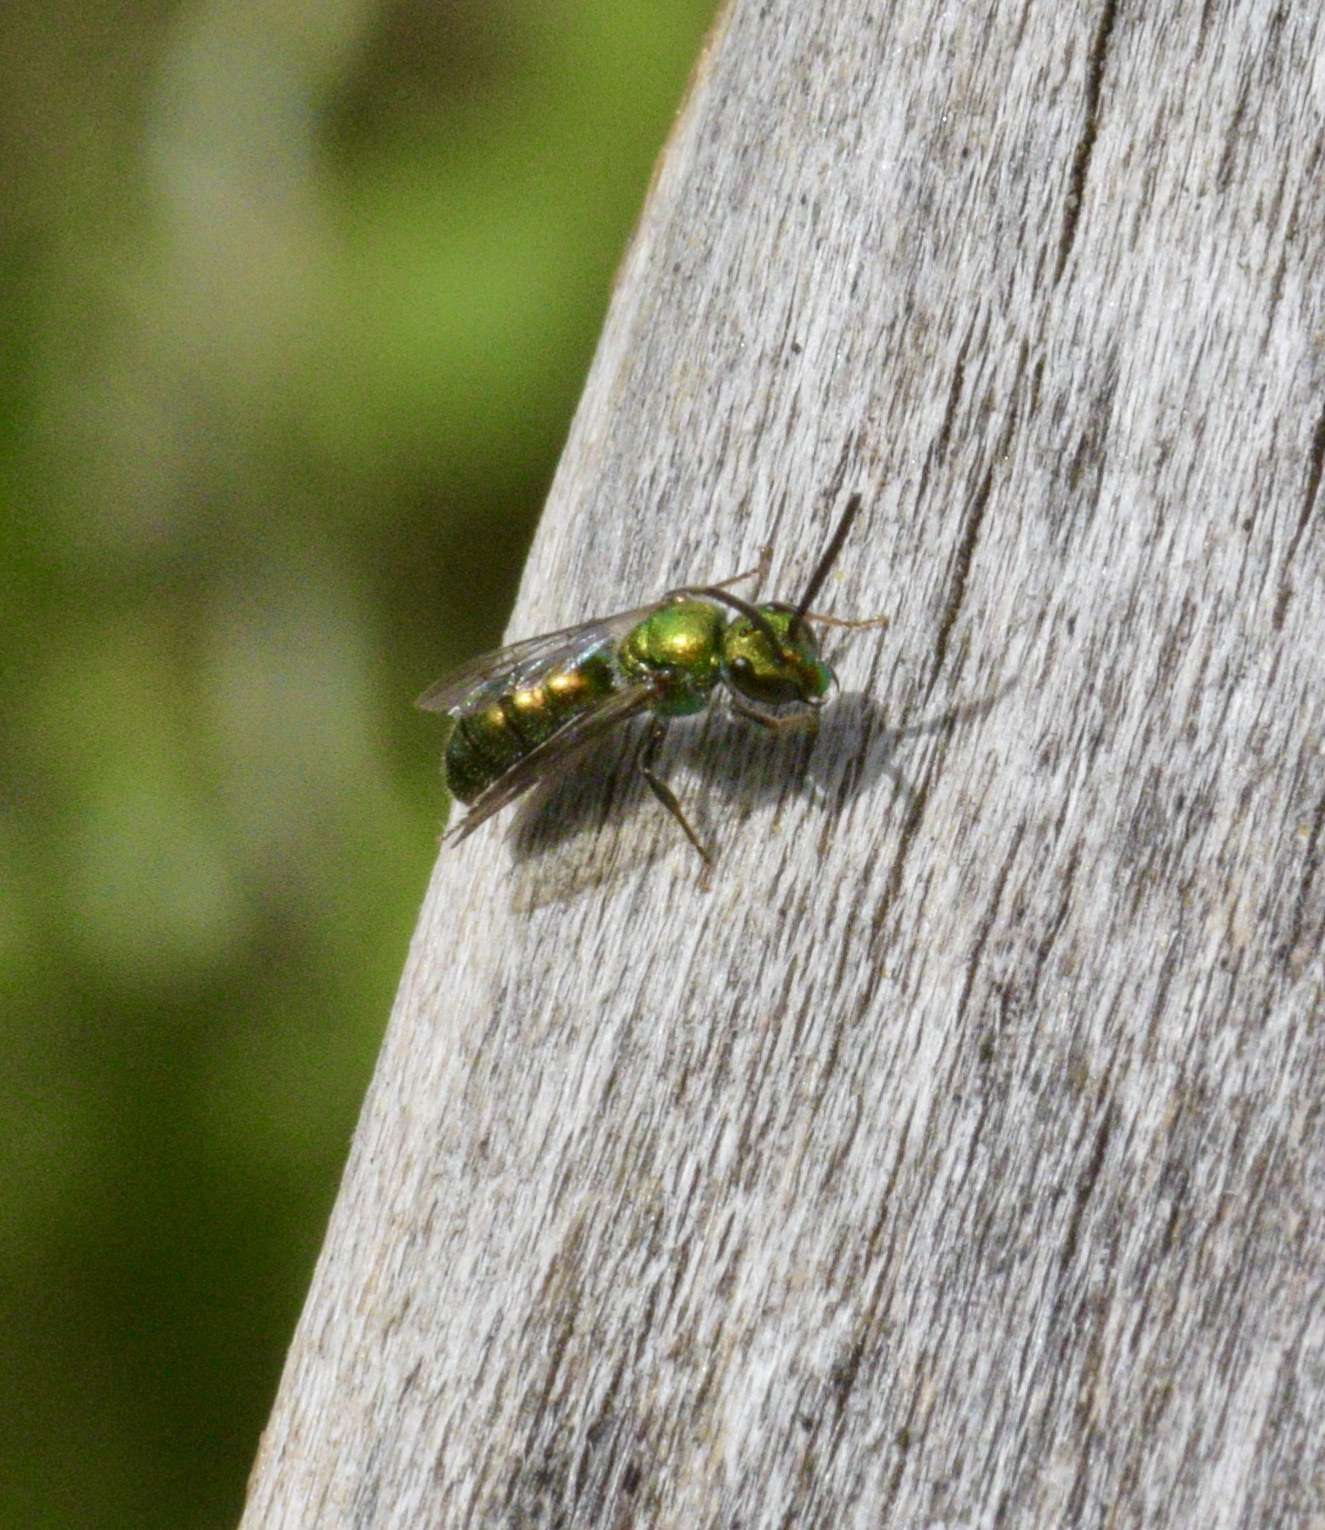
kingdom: Animalia
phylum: Arthropoda
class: Insecta
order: Hymenoptera
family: Halictidae
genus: Augochlora
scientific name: Augochlora pura
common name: Pure green sweat bee
